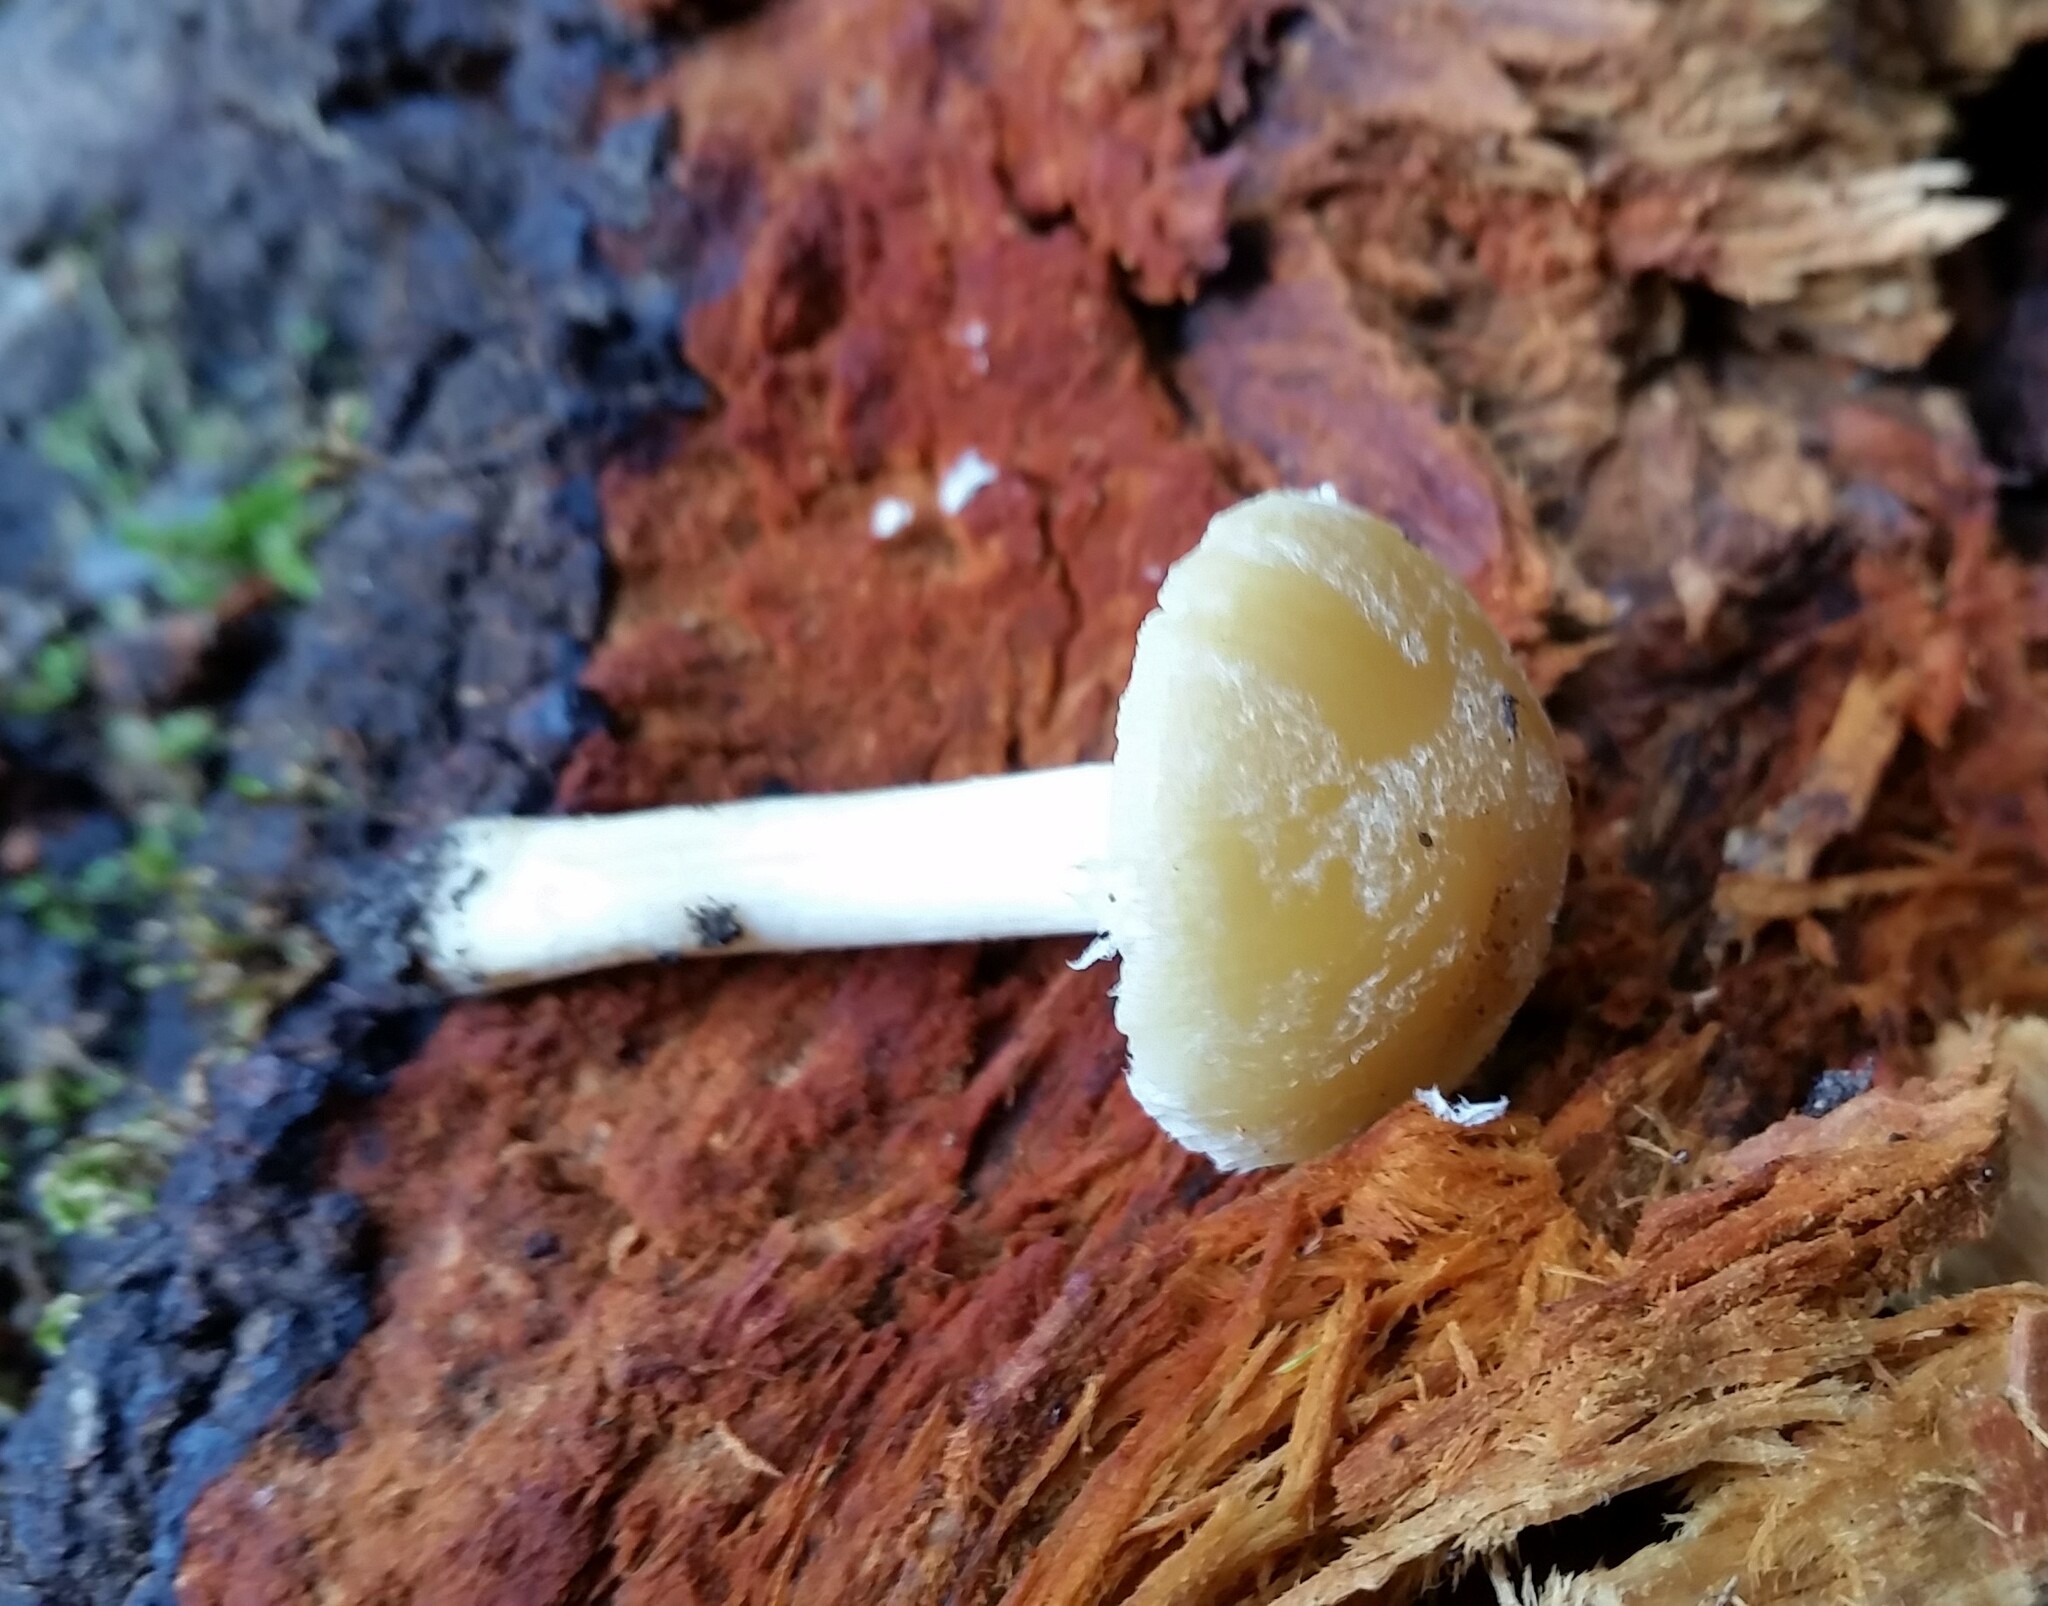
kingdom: Fungi
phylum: Basidiomycota
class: Agaricomycetes
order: Agaricales
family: Psathyrellaceae
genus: Psathyrella
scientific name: Psathyrella piluliformis
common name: Common stump brittlestem
